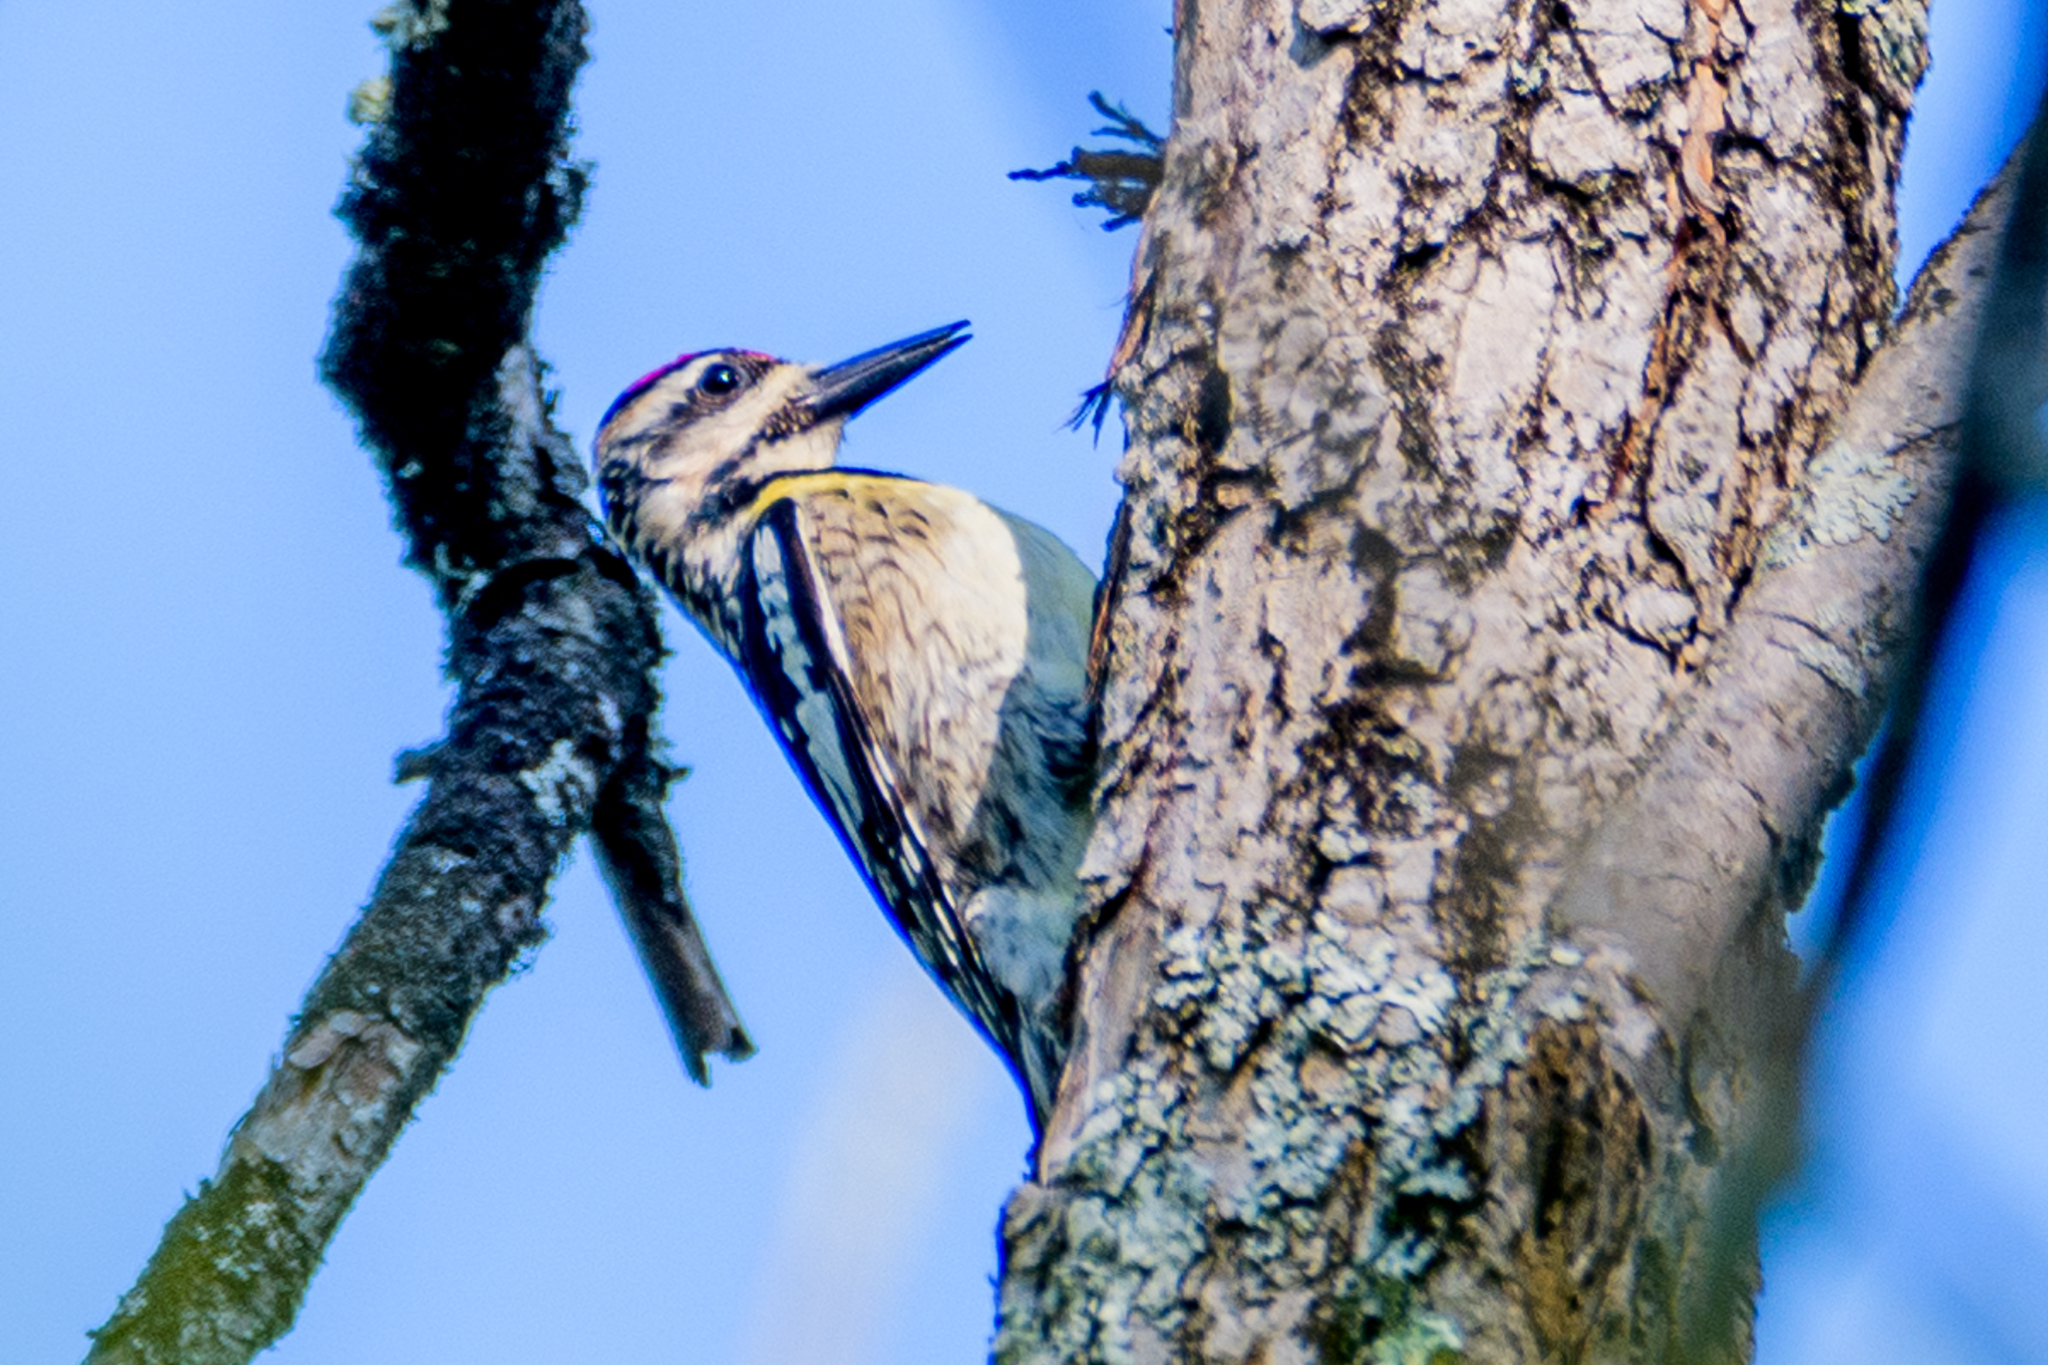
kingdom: Animalia
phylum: Chordata
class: Aves
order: Piciformes
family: Picidae
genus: Sphyrapicus
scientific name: Sphyrapicus varius
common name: Yellow-bellied sapsucker
